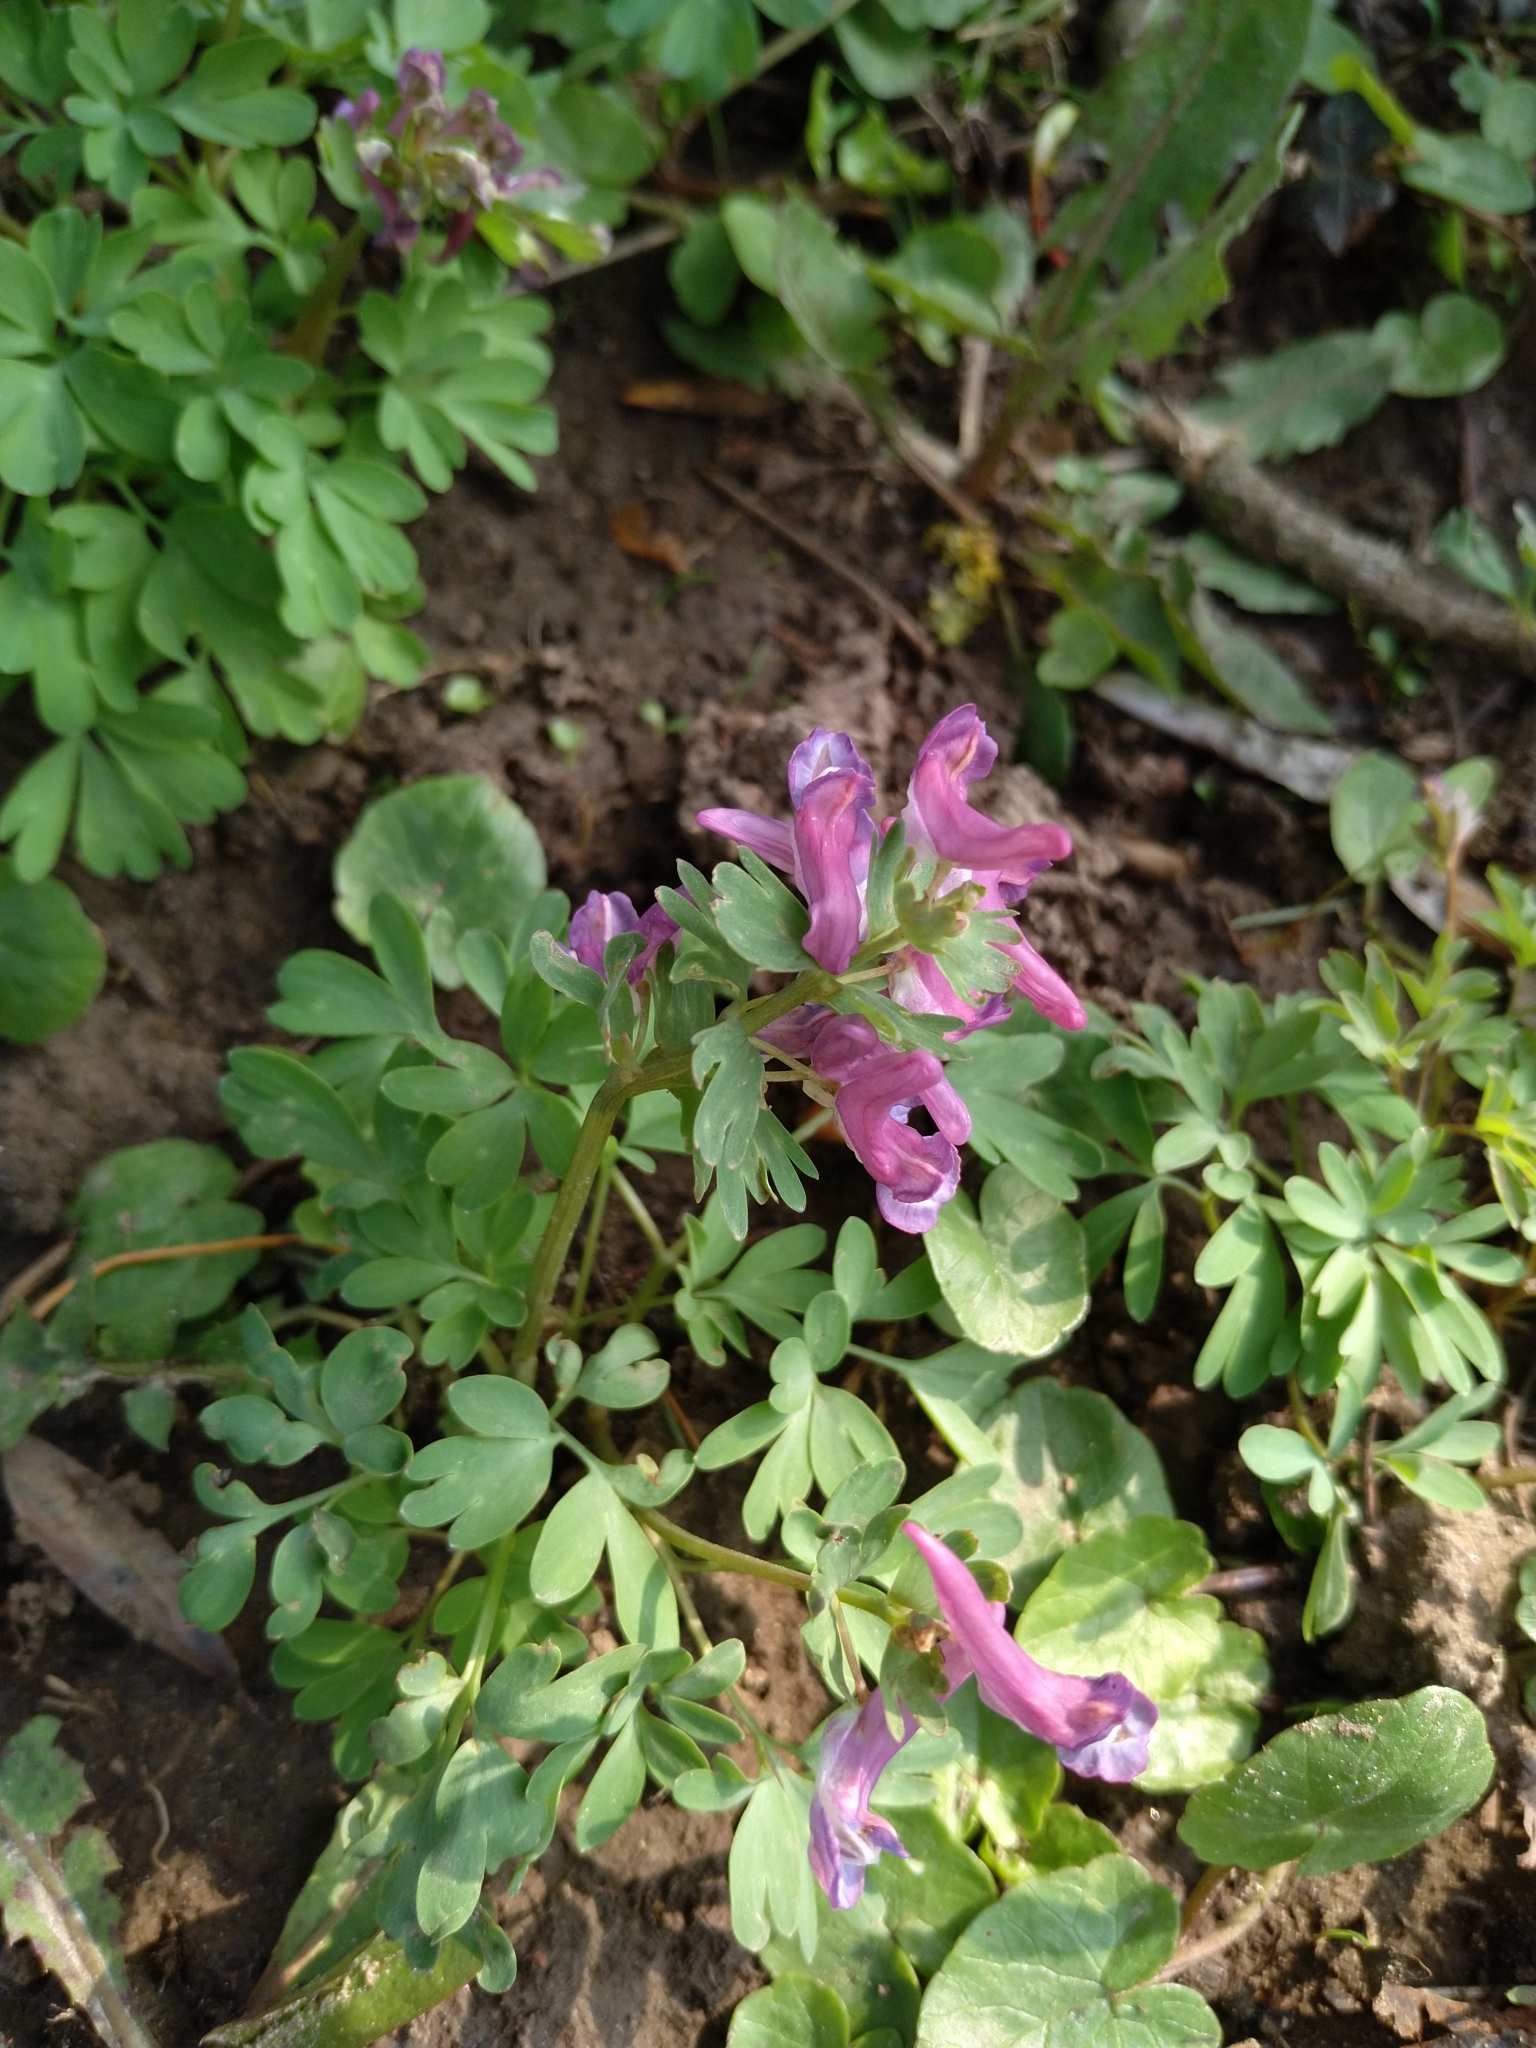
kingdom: Plantae
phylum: Tracheophyta
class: Magnoliopsida
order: Ranunculales
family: Papaveraceae
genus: Corydalis
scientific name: Corydalis solida
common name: Bird-in-a-bush
